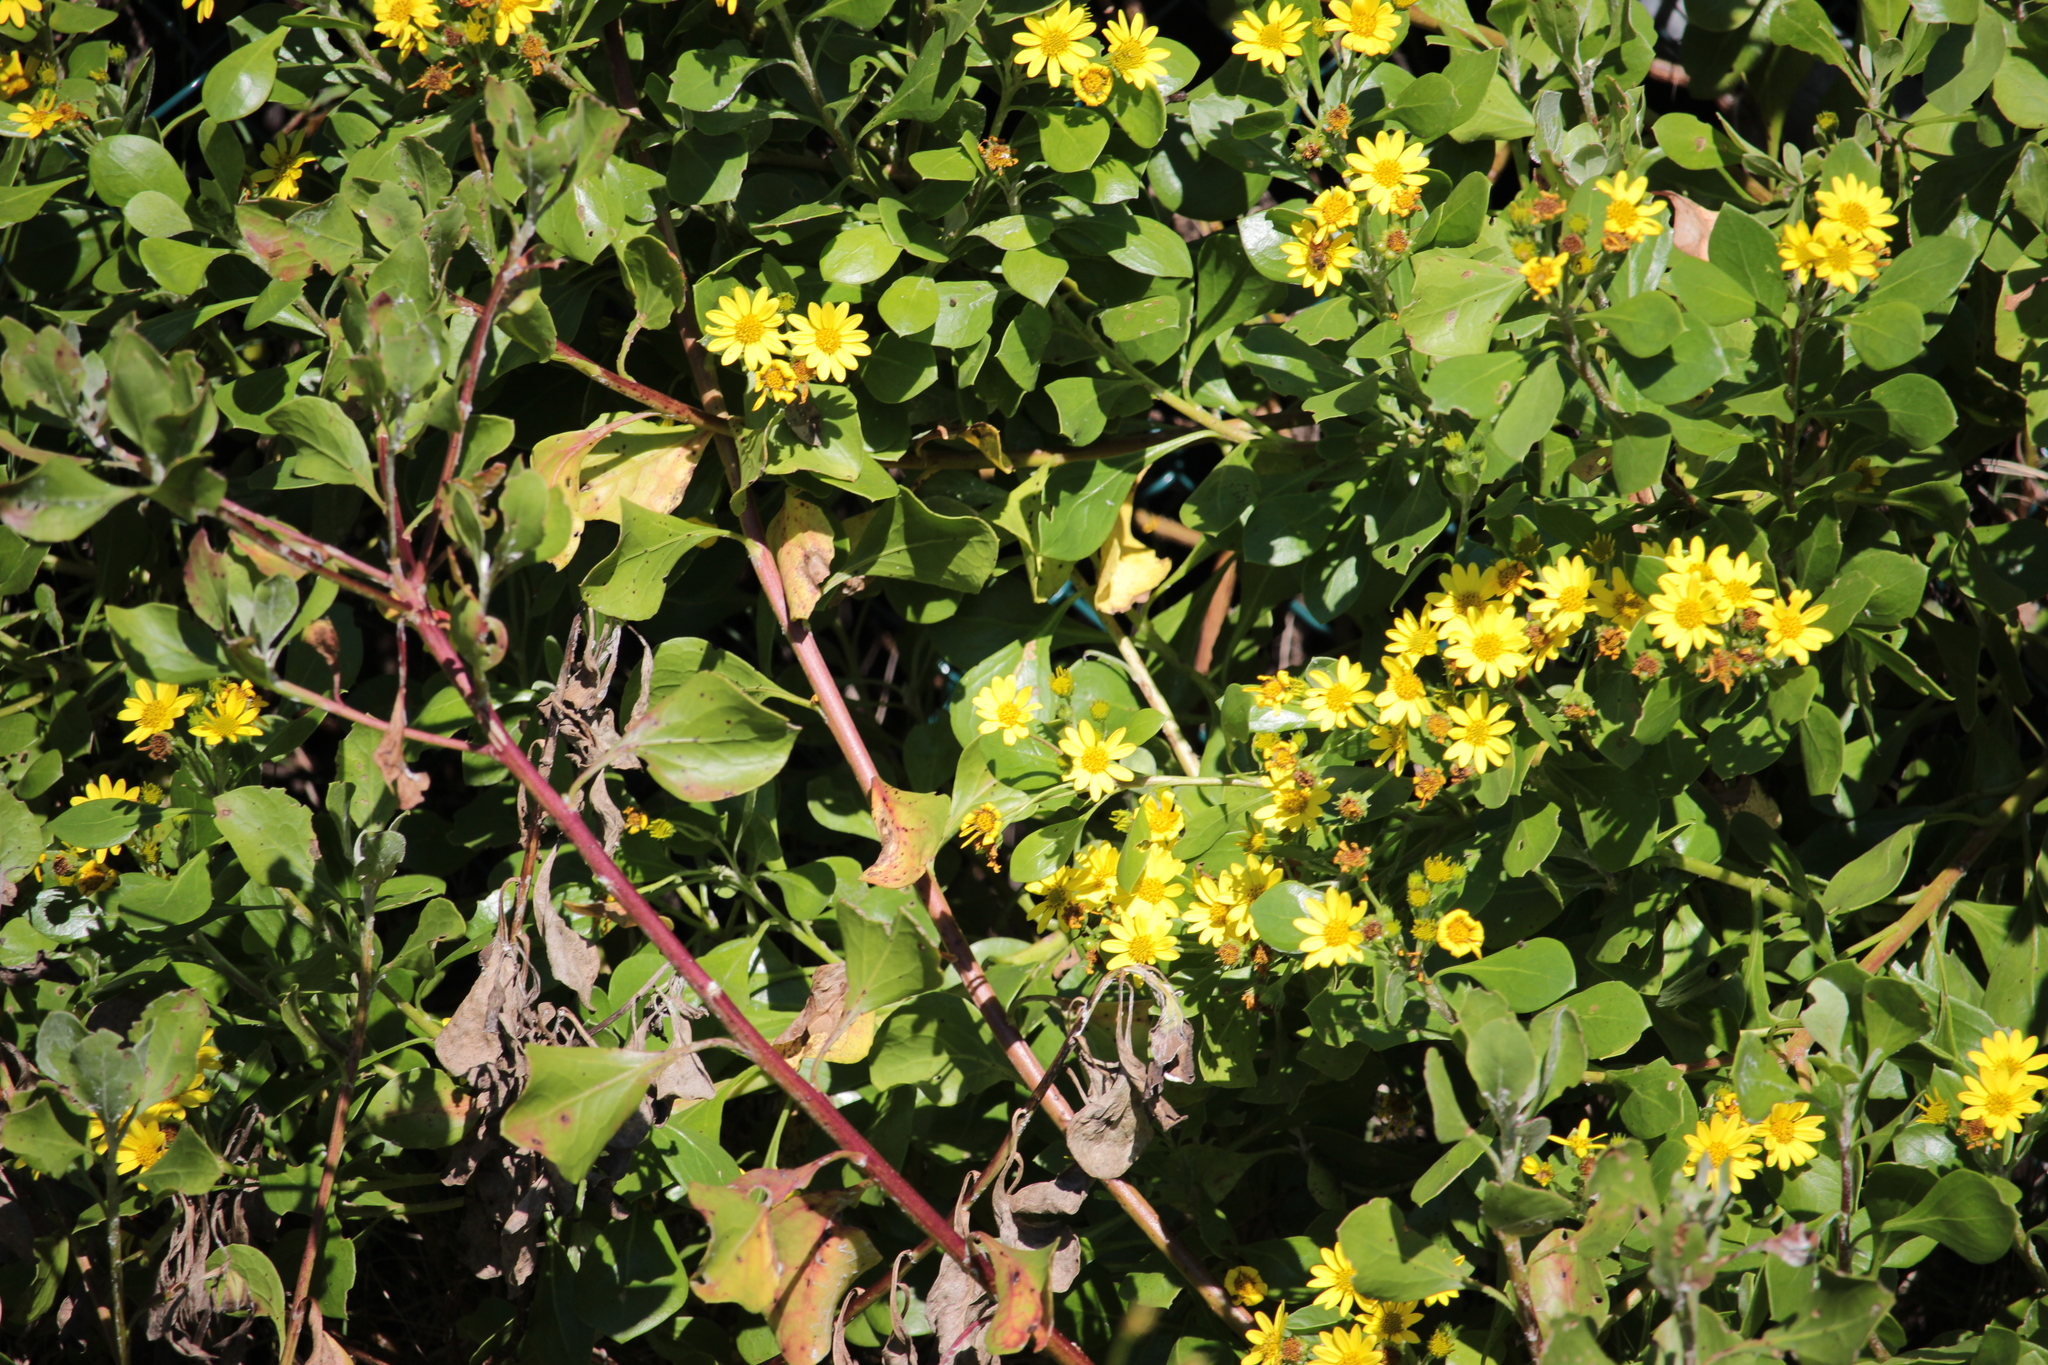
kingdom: Plantae
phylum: Tracheophyta
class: Magnoliopsida
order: Asterales
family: Asteraceae
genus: Osteospermum
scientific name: Osteospermum moniliferum
